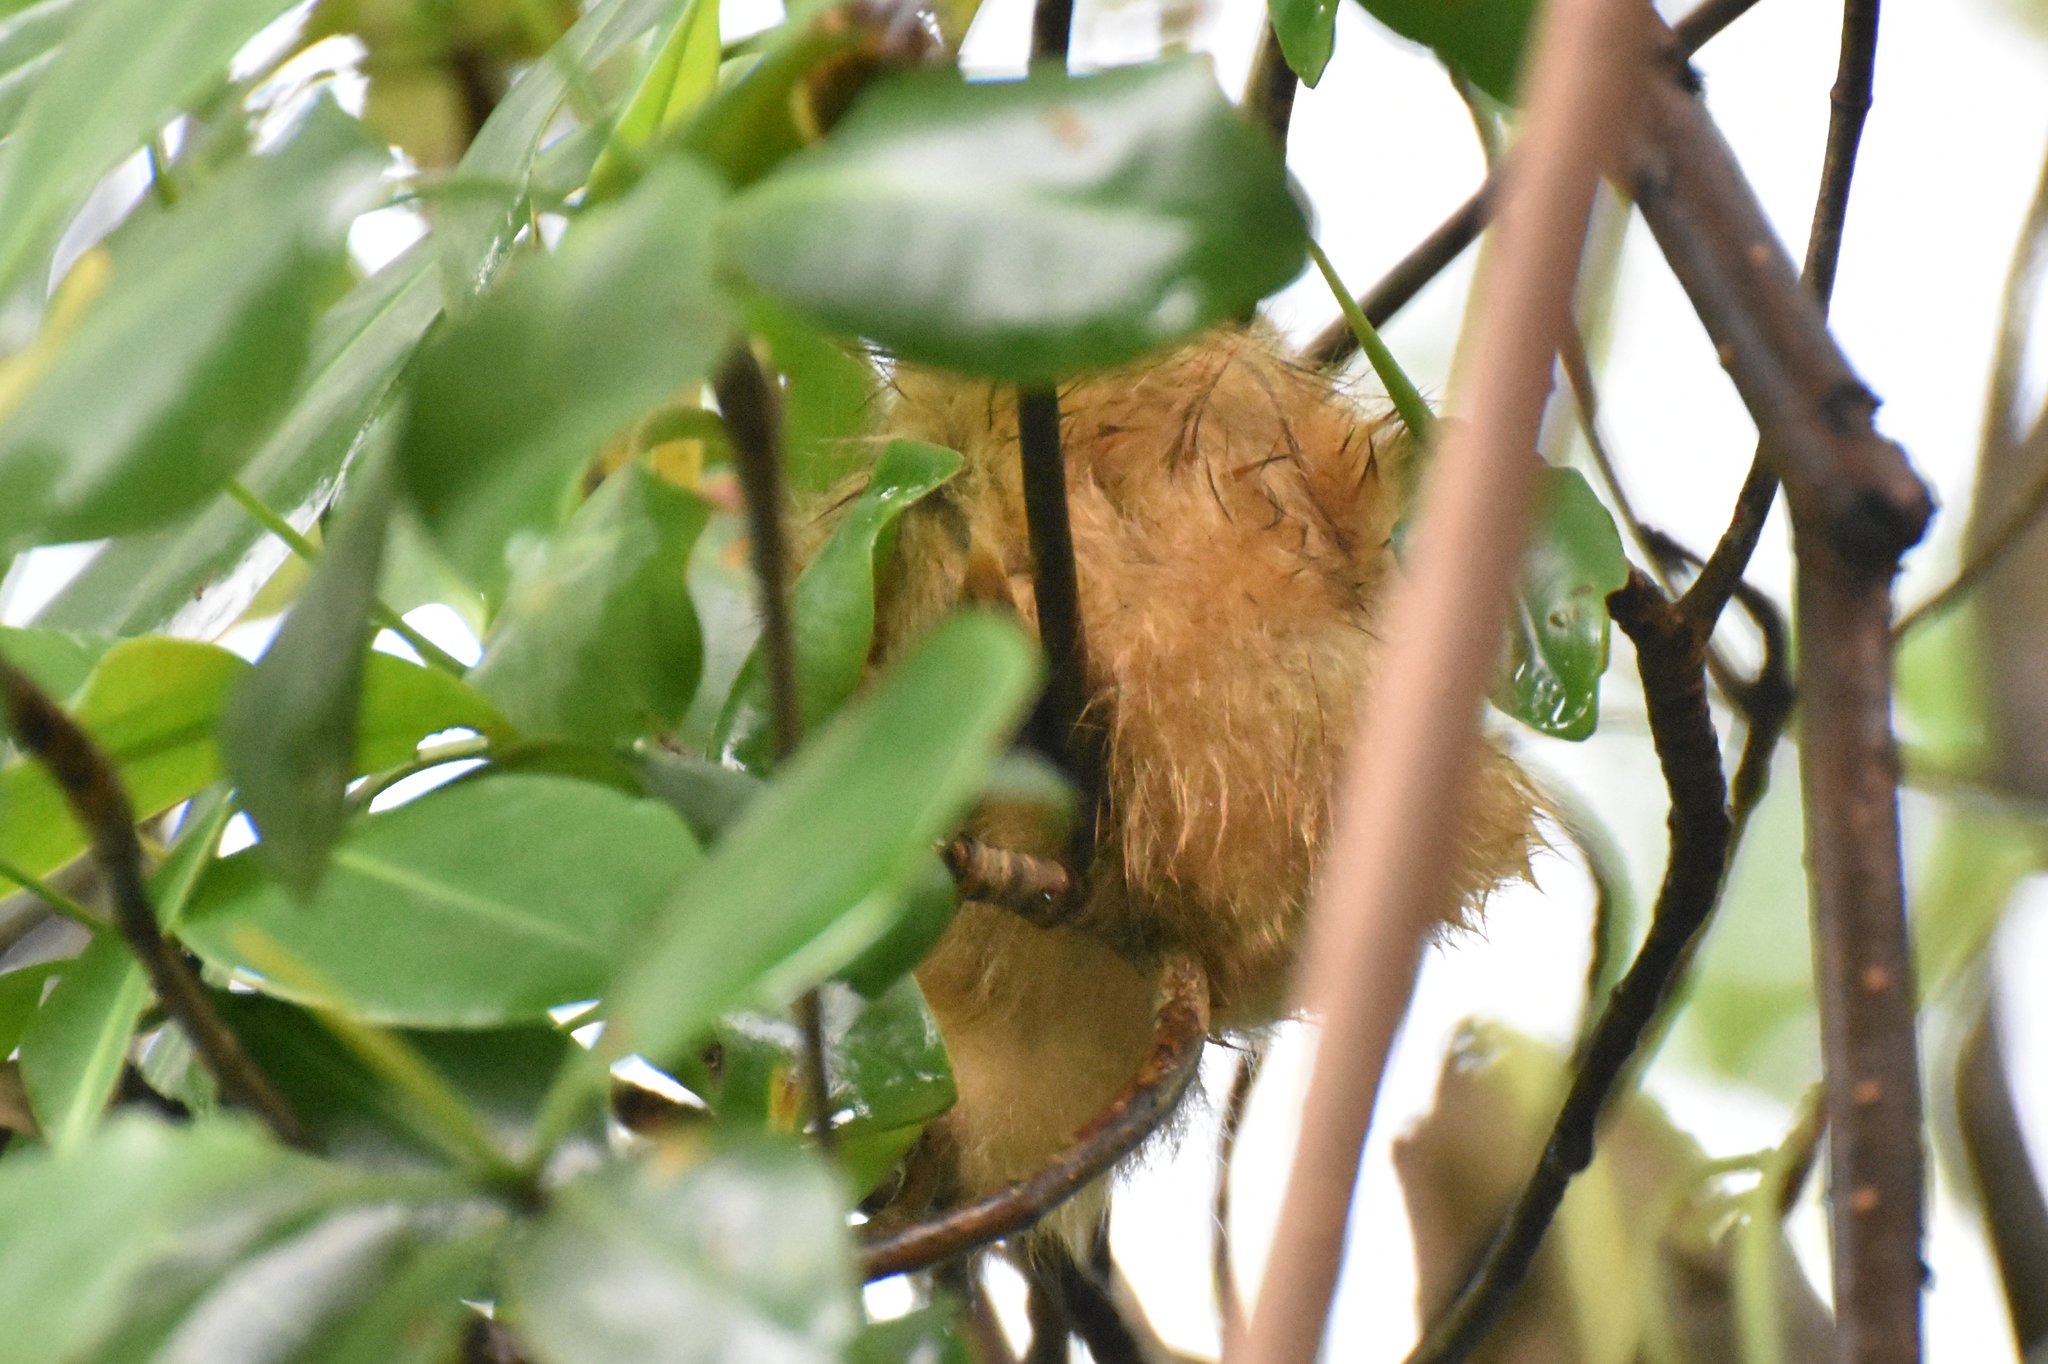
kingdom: Animalia
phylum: Chordata
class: Mammalia
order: Pilosa
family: Cyclopedidae
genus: Cyclopes
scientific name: Cyclopes didactylus
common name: Silky anteater
